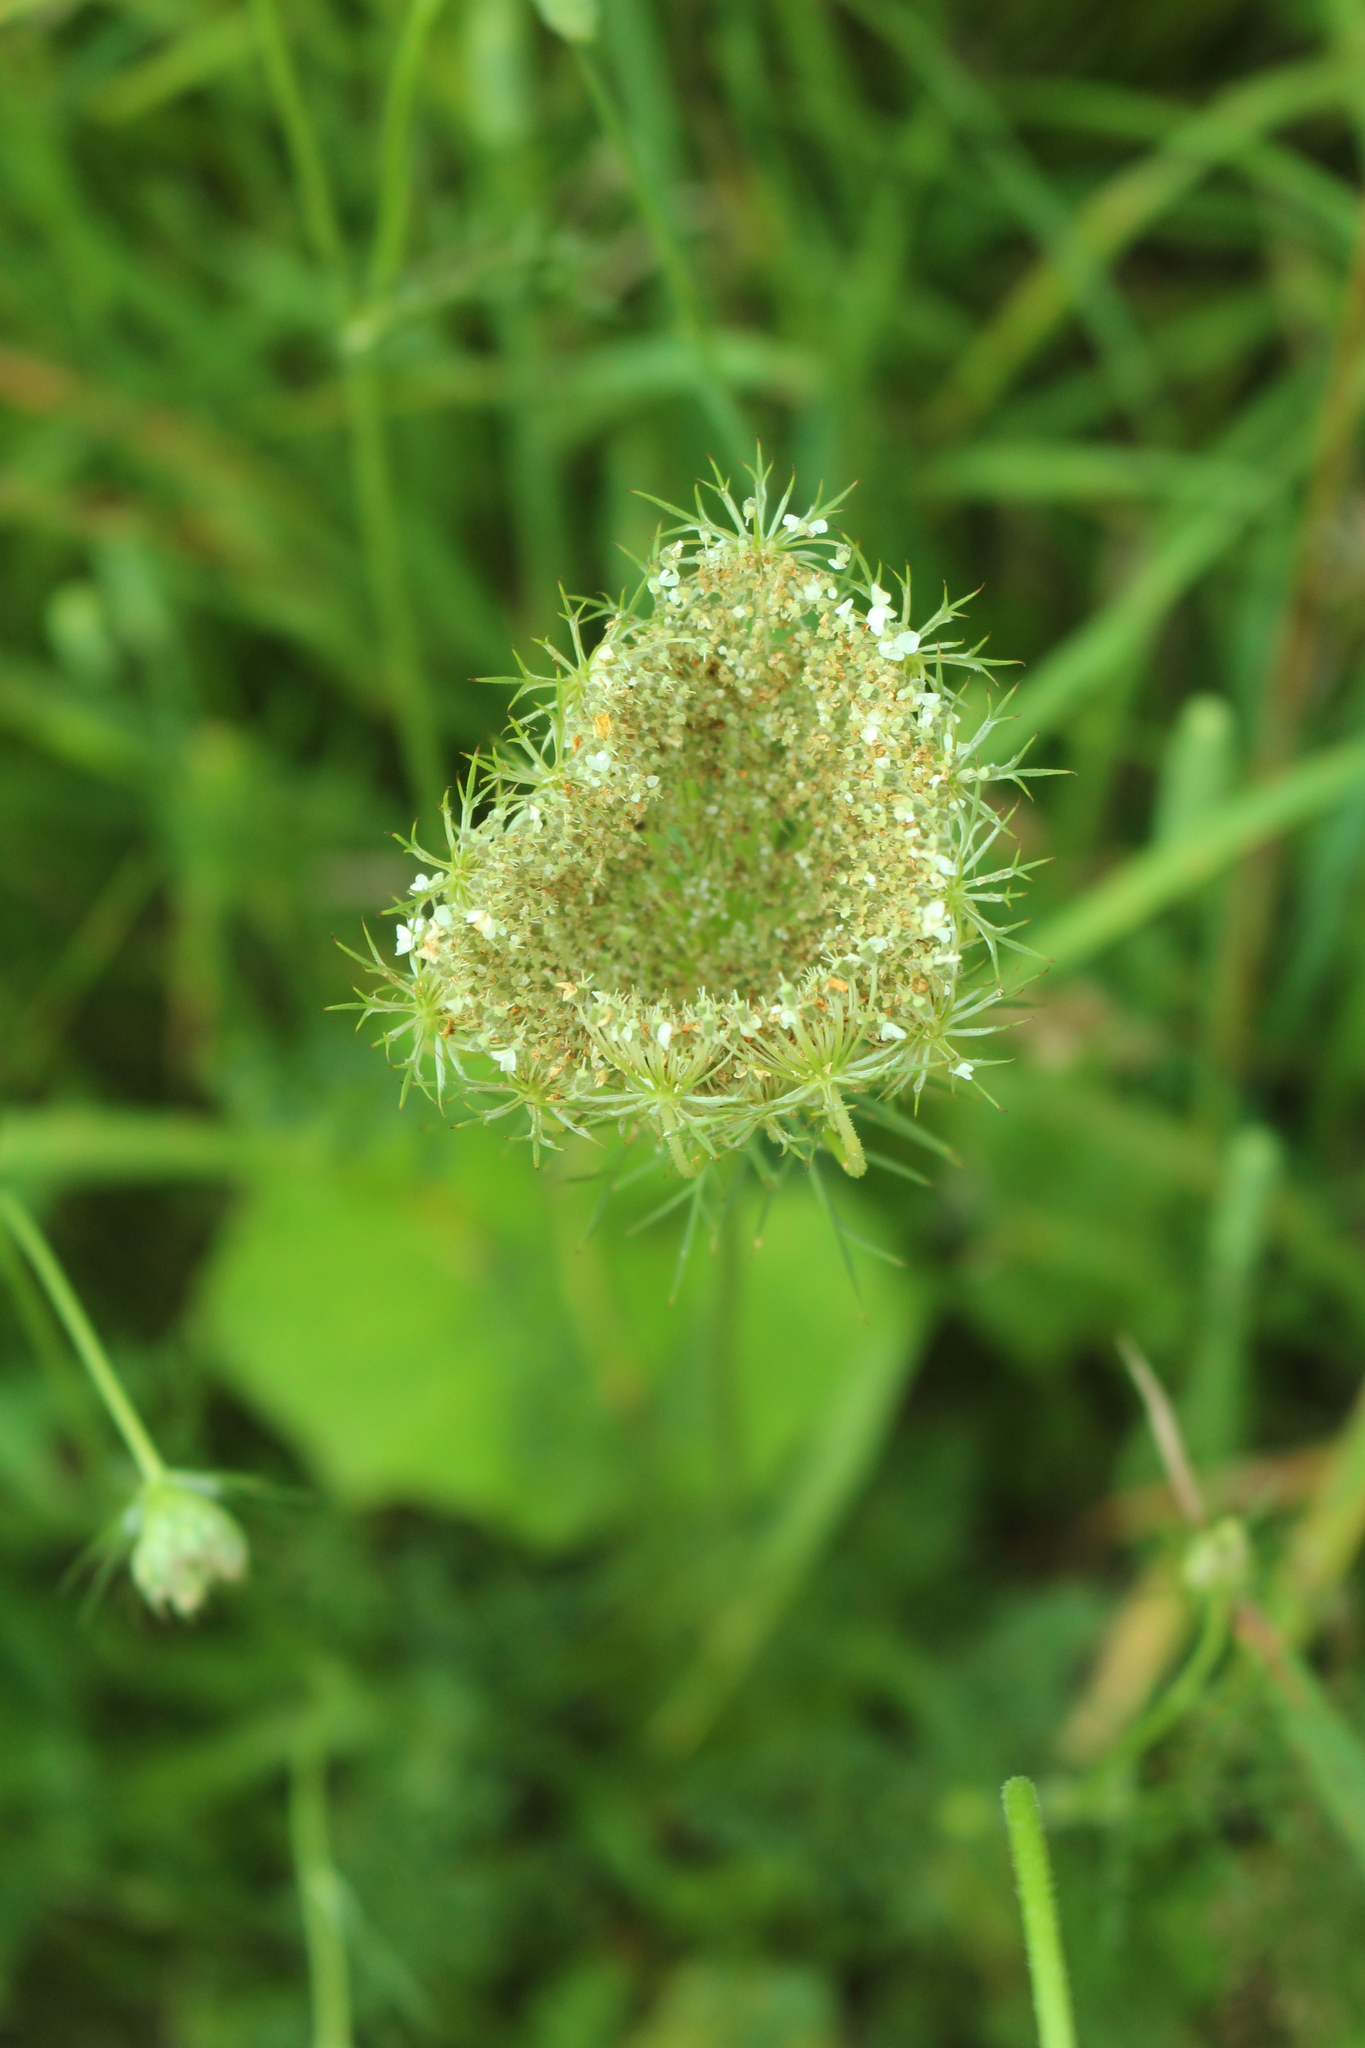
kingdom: Plantae
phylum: Tracheophyta
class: Magnoliopsida
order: Apiales
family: Apiaceae
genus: Daucus
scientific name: Daucus carota
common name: Wild carrot
